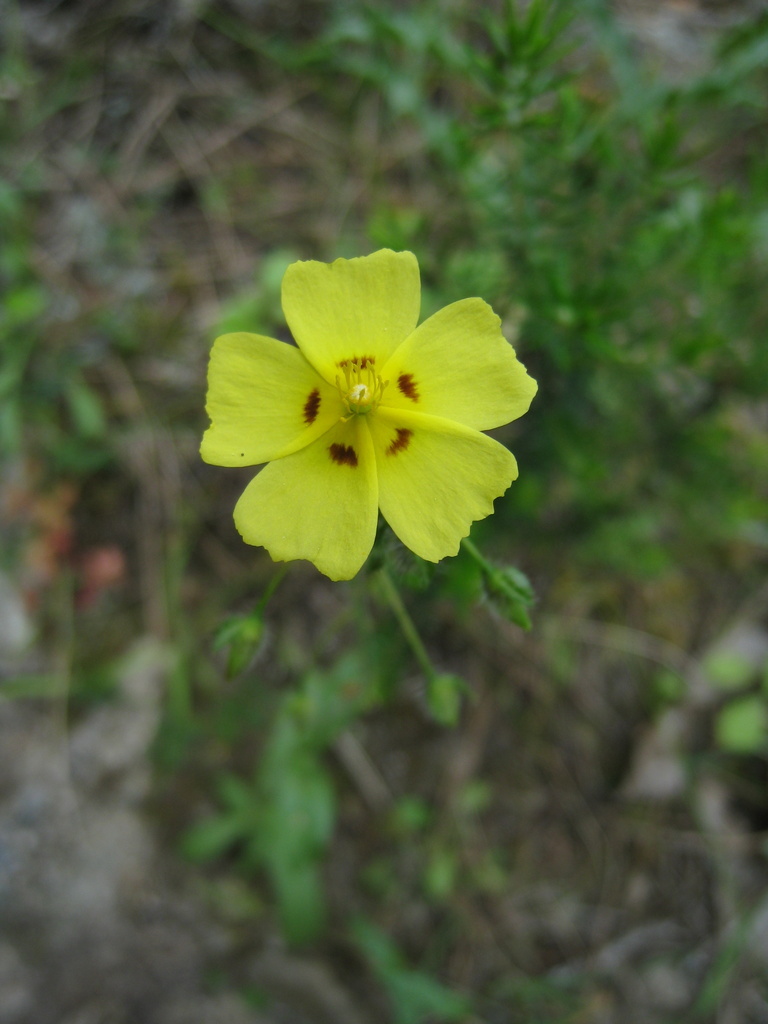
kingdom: Plantae
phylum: Tracheophyta
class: Magnoliopsida
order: Malvales
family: Cistaceae
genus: Tuberaria
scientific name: Tuberaria guttata
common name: Spotted rock-rose
